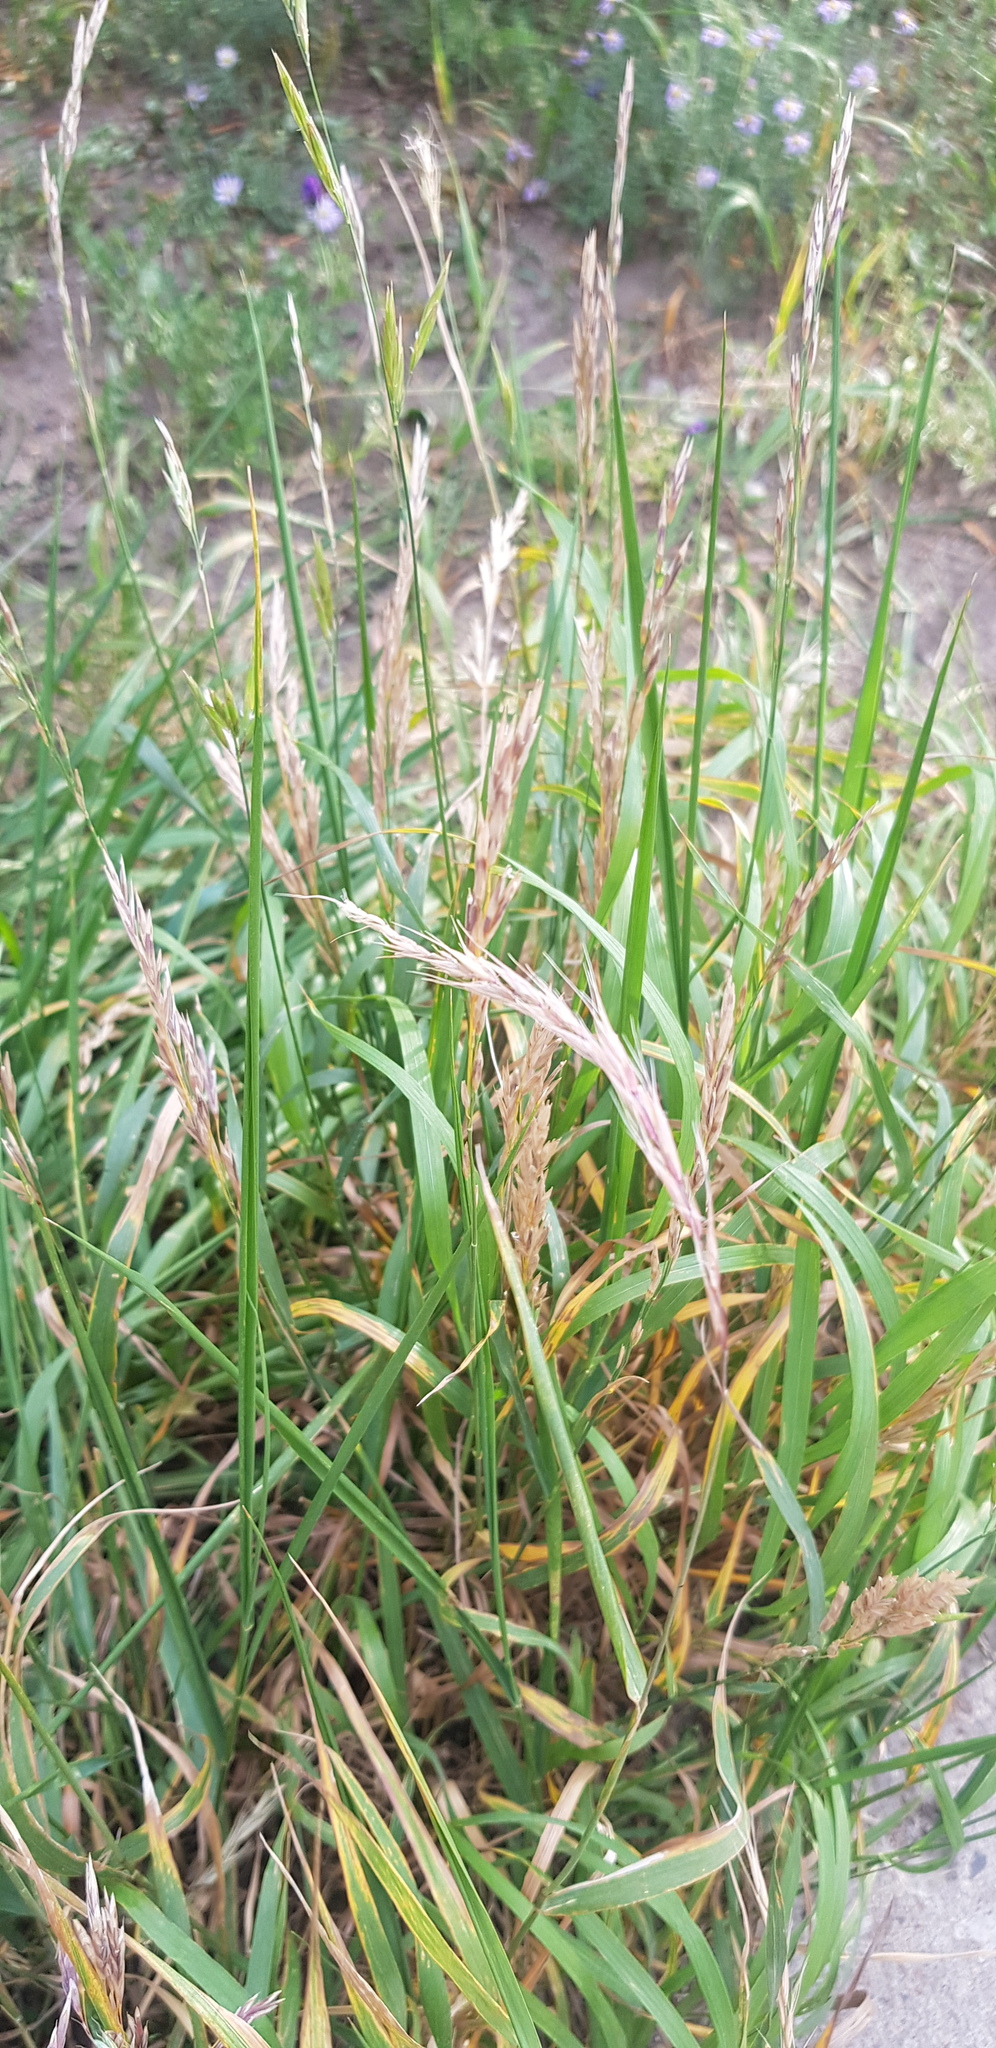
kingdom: Plantae
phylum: Tracheophyta
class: Liliopsida
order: Poales
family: Poaceae
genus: Elymus
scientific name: Elymus repens
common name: Quackgrass
